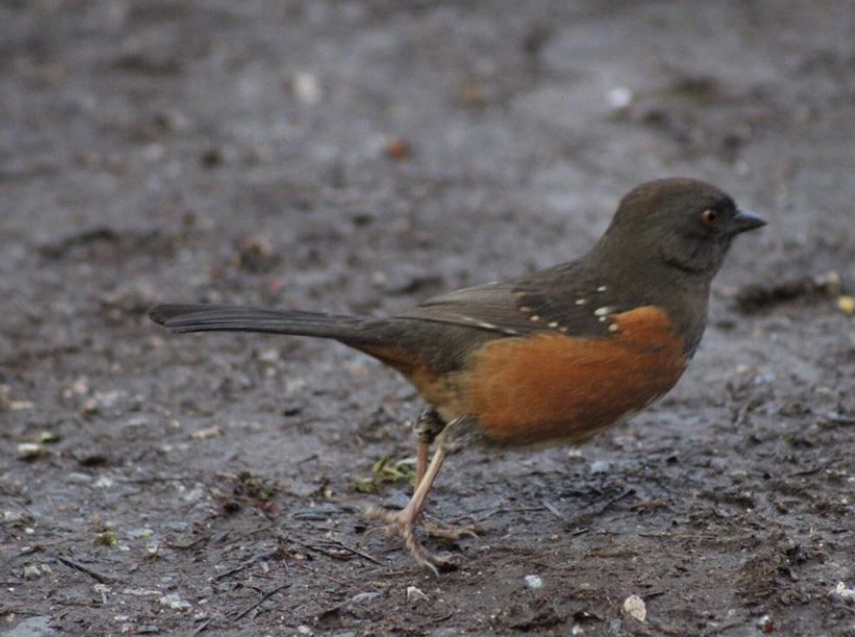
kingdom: Animalia
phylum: Chordata
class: Aves
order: Passeriformes
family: Passerellidae
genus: Pipilo
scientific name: Pipilo maculatus
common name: Spotted towhee
